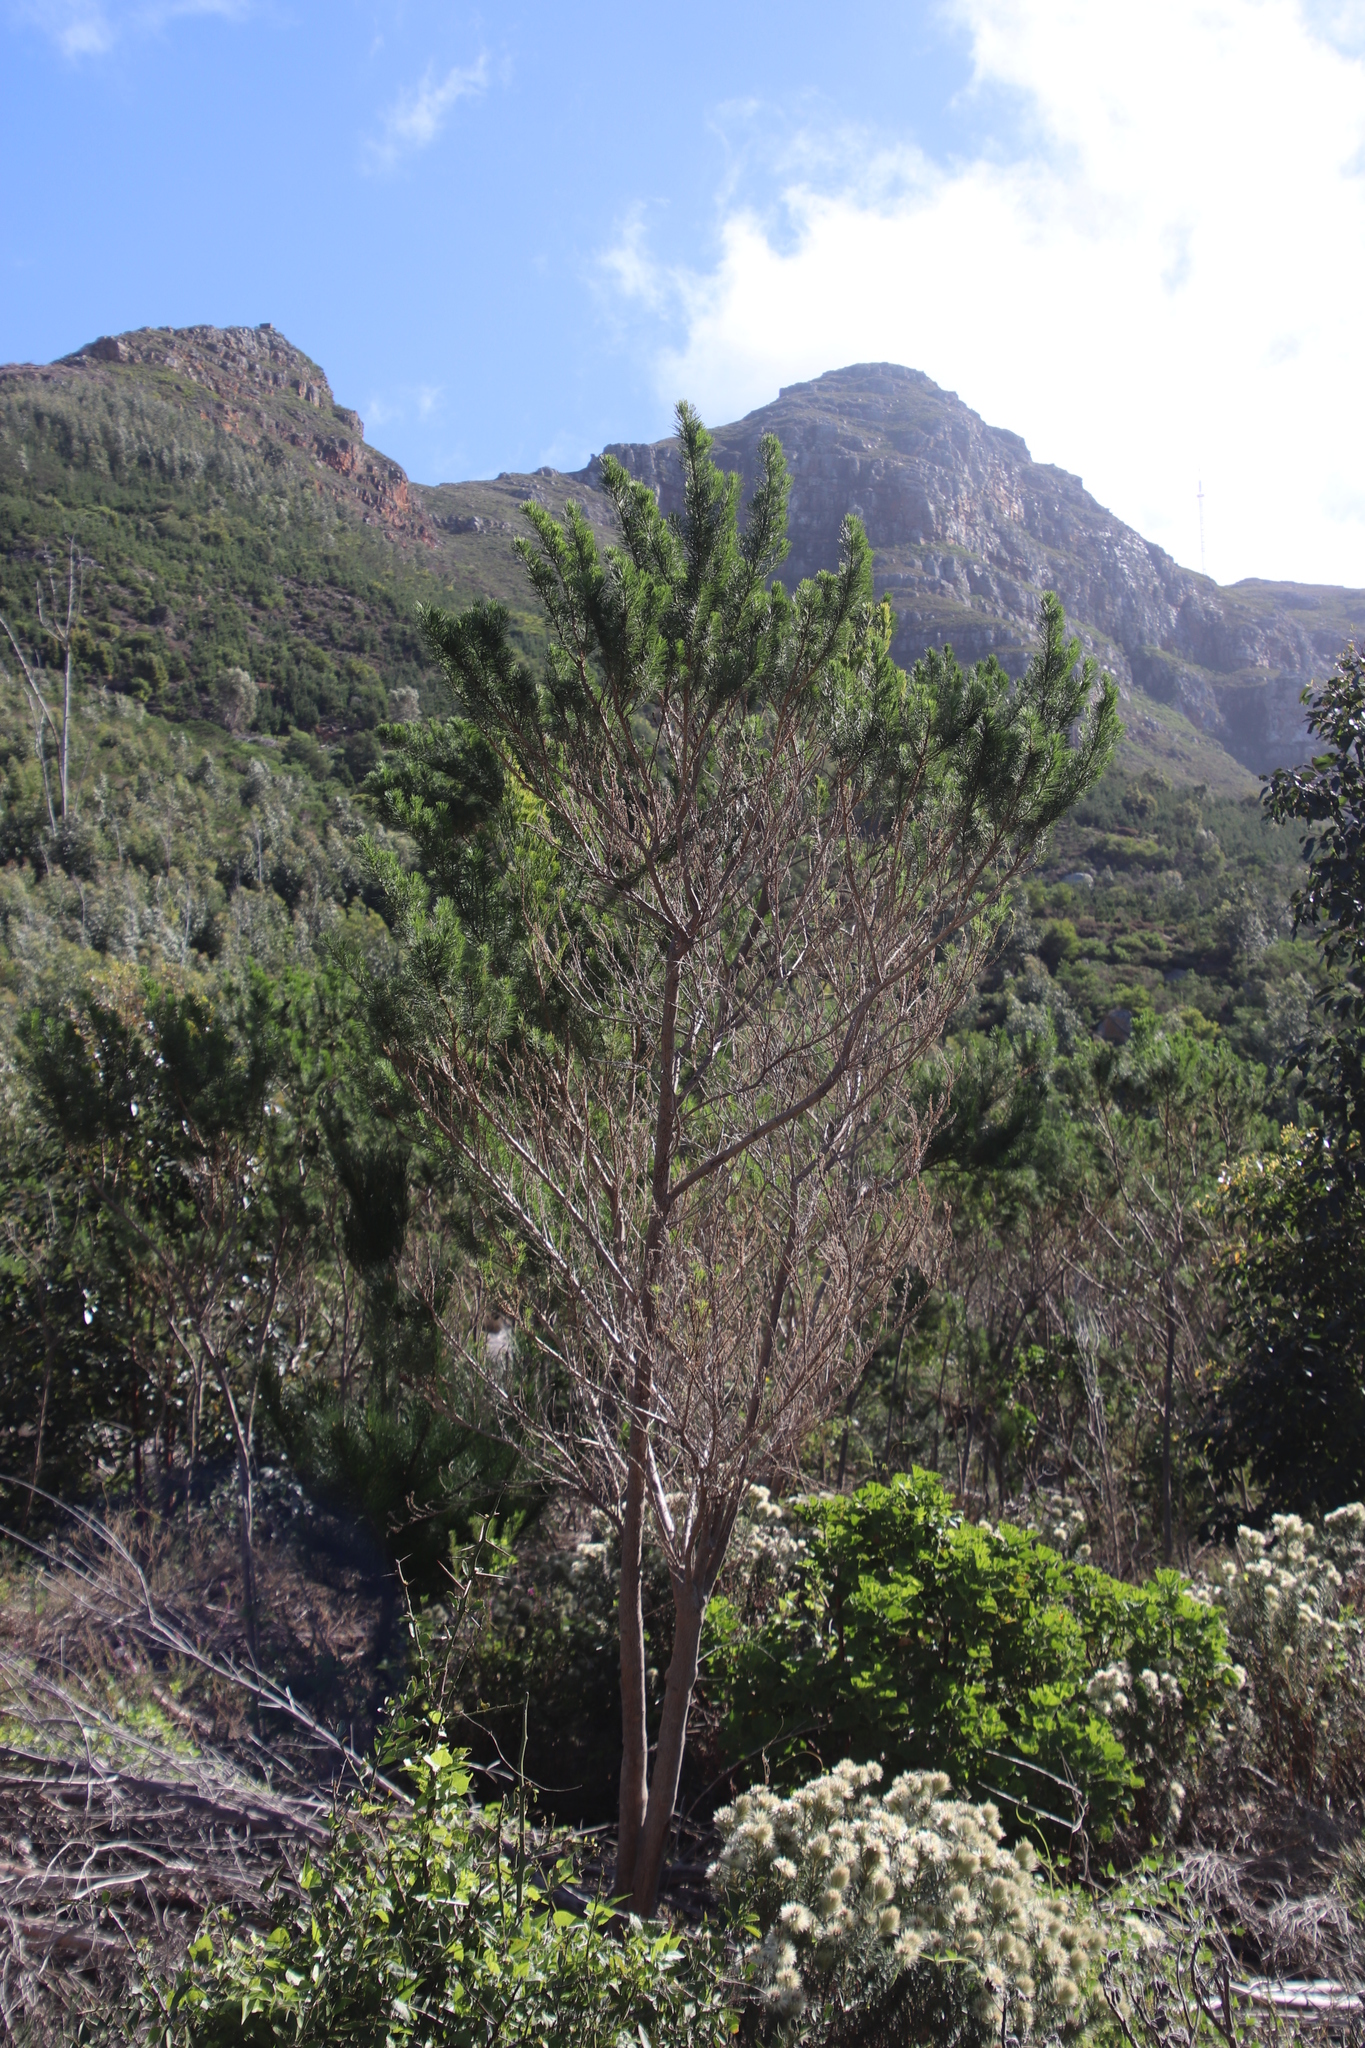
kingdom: Plantae
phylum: Tracheophyta
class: Magnoliopsida
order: Fabales
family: Fabaceae
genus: Psoralea
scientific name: Psoralea pinnata
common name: African scurfpea
